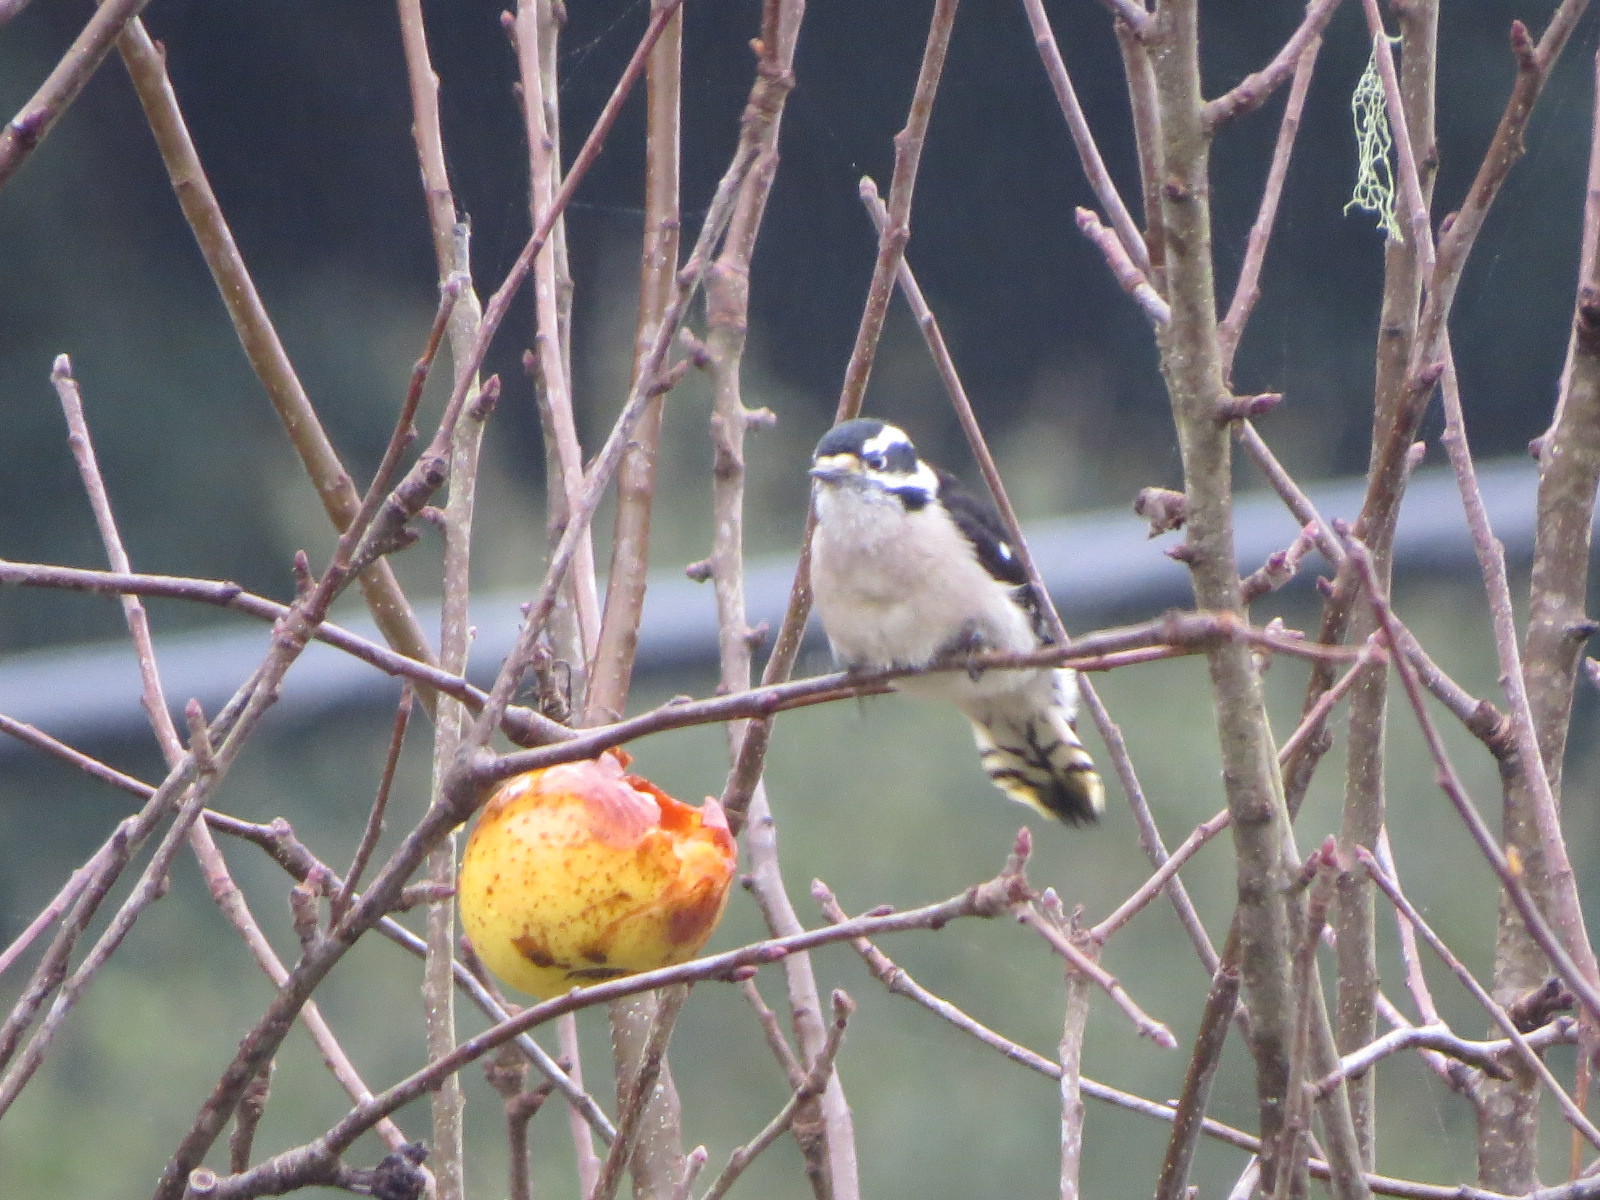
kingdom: Animalia
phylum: Chordata
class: Aves
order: Piciformes
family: Picidae
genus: Dryobates
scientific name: Dryobates pubescens
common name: Downy woodpecker
